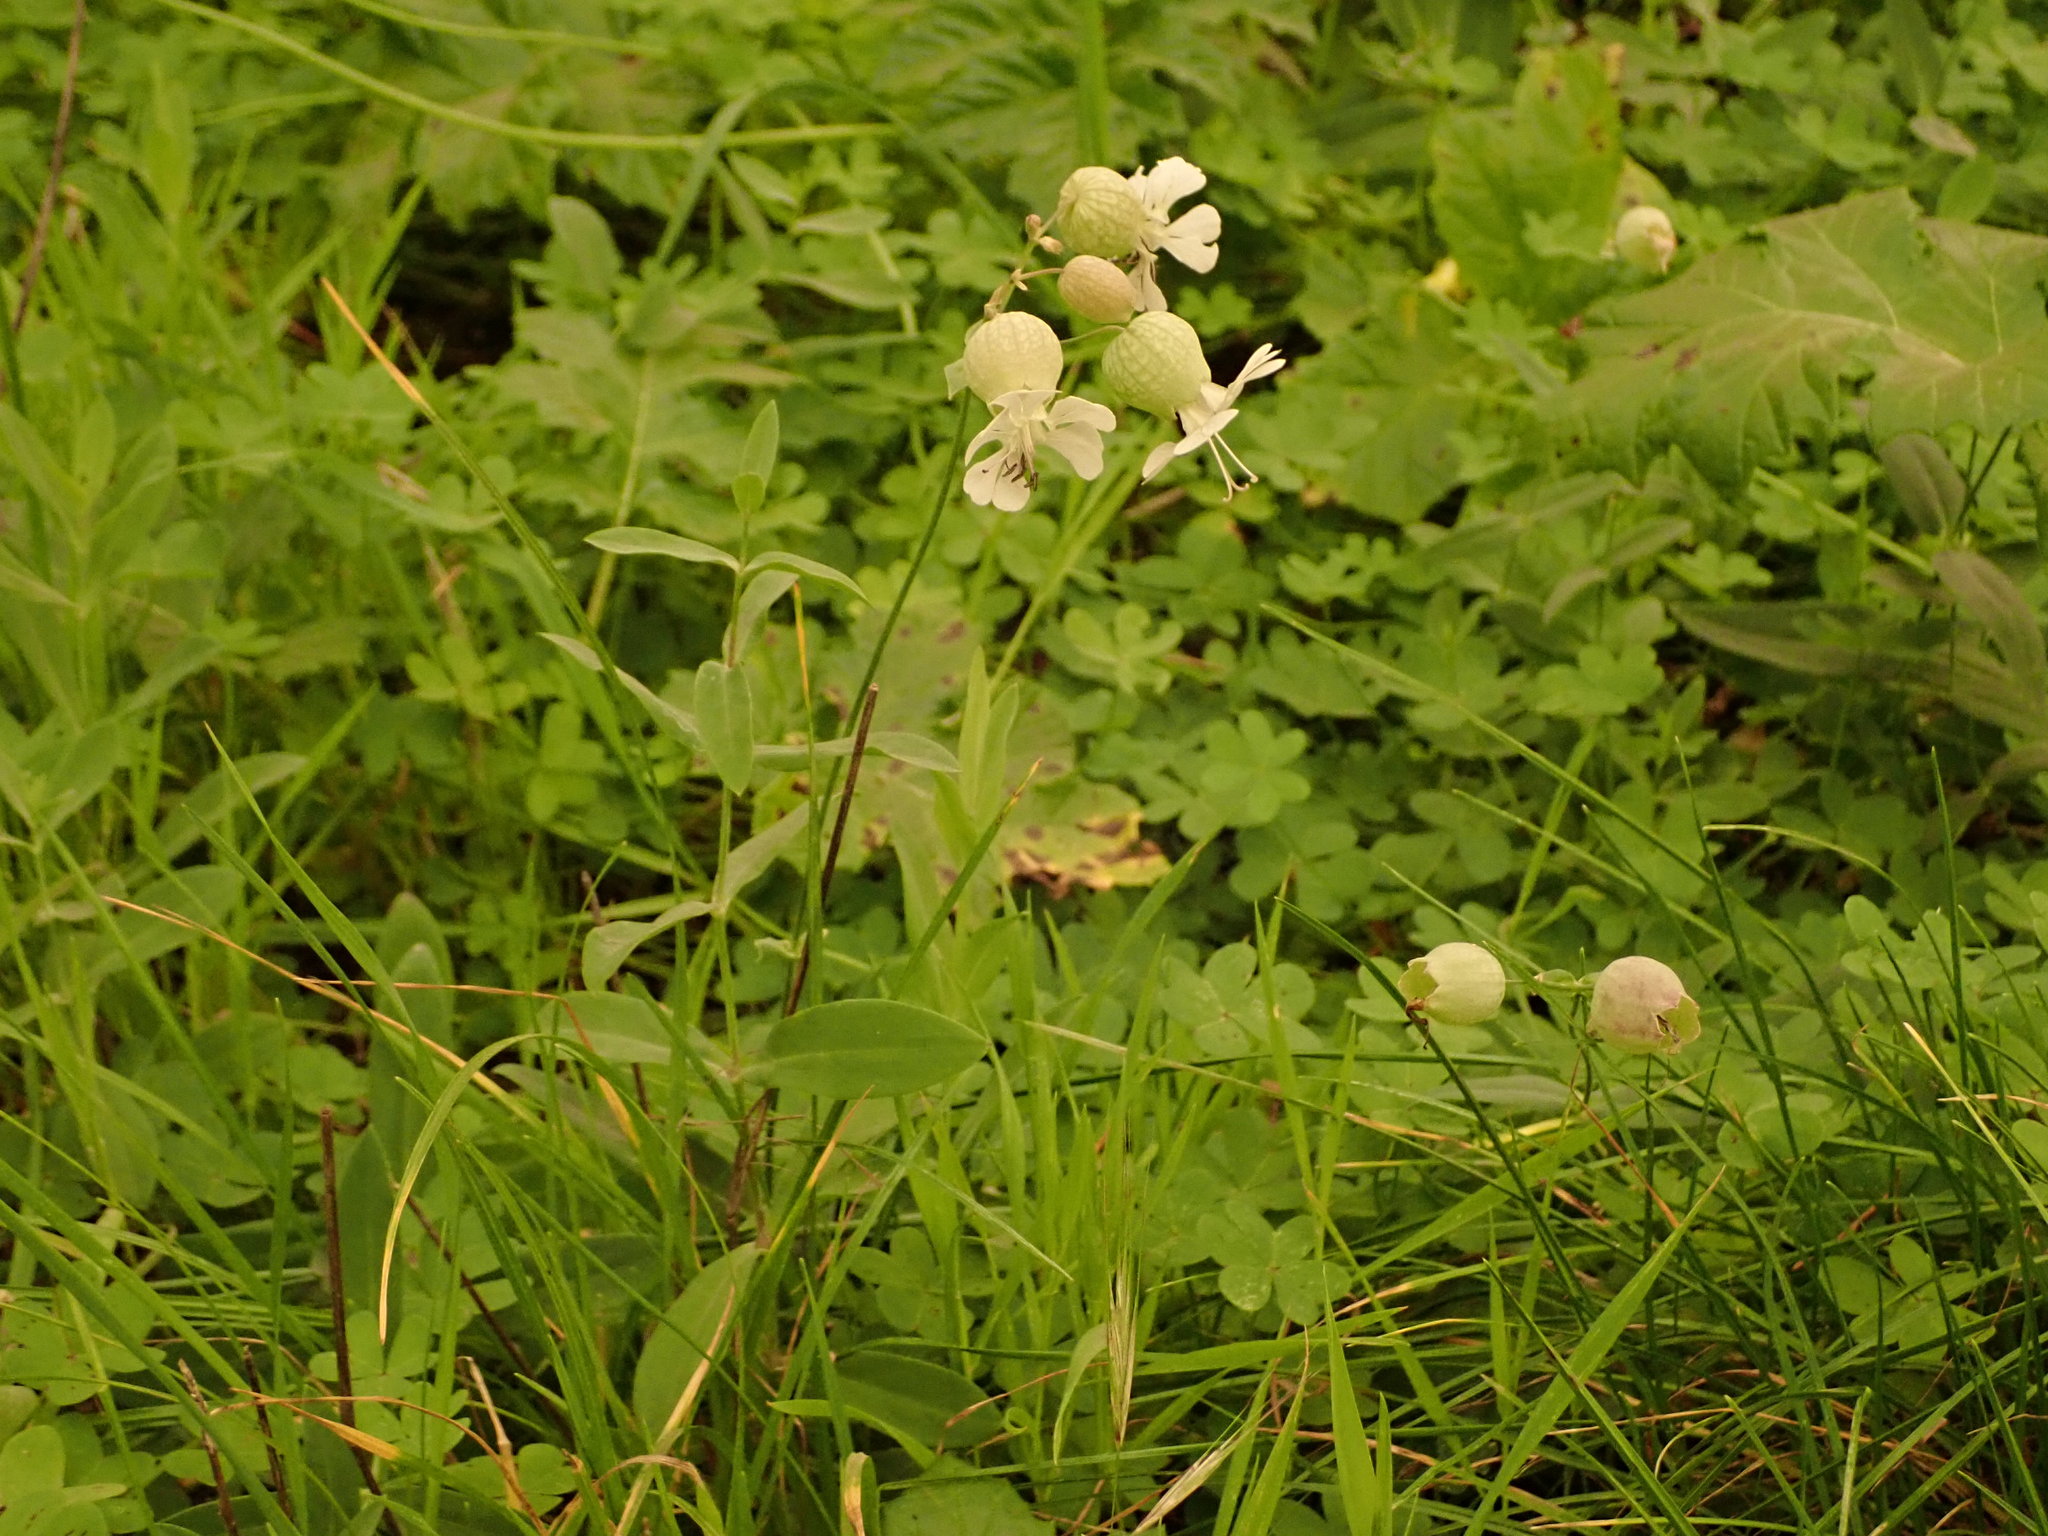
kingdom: Plantae
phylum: Tracheophyta
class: Magnoliopsida
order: Caryophyllales
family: Caryophyllaceae
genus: Silene
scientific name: Silene vulgaris
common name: Bladder campion
